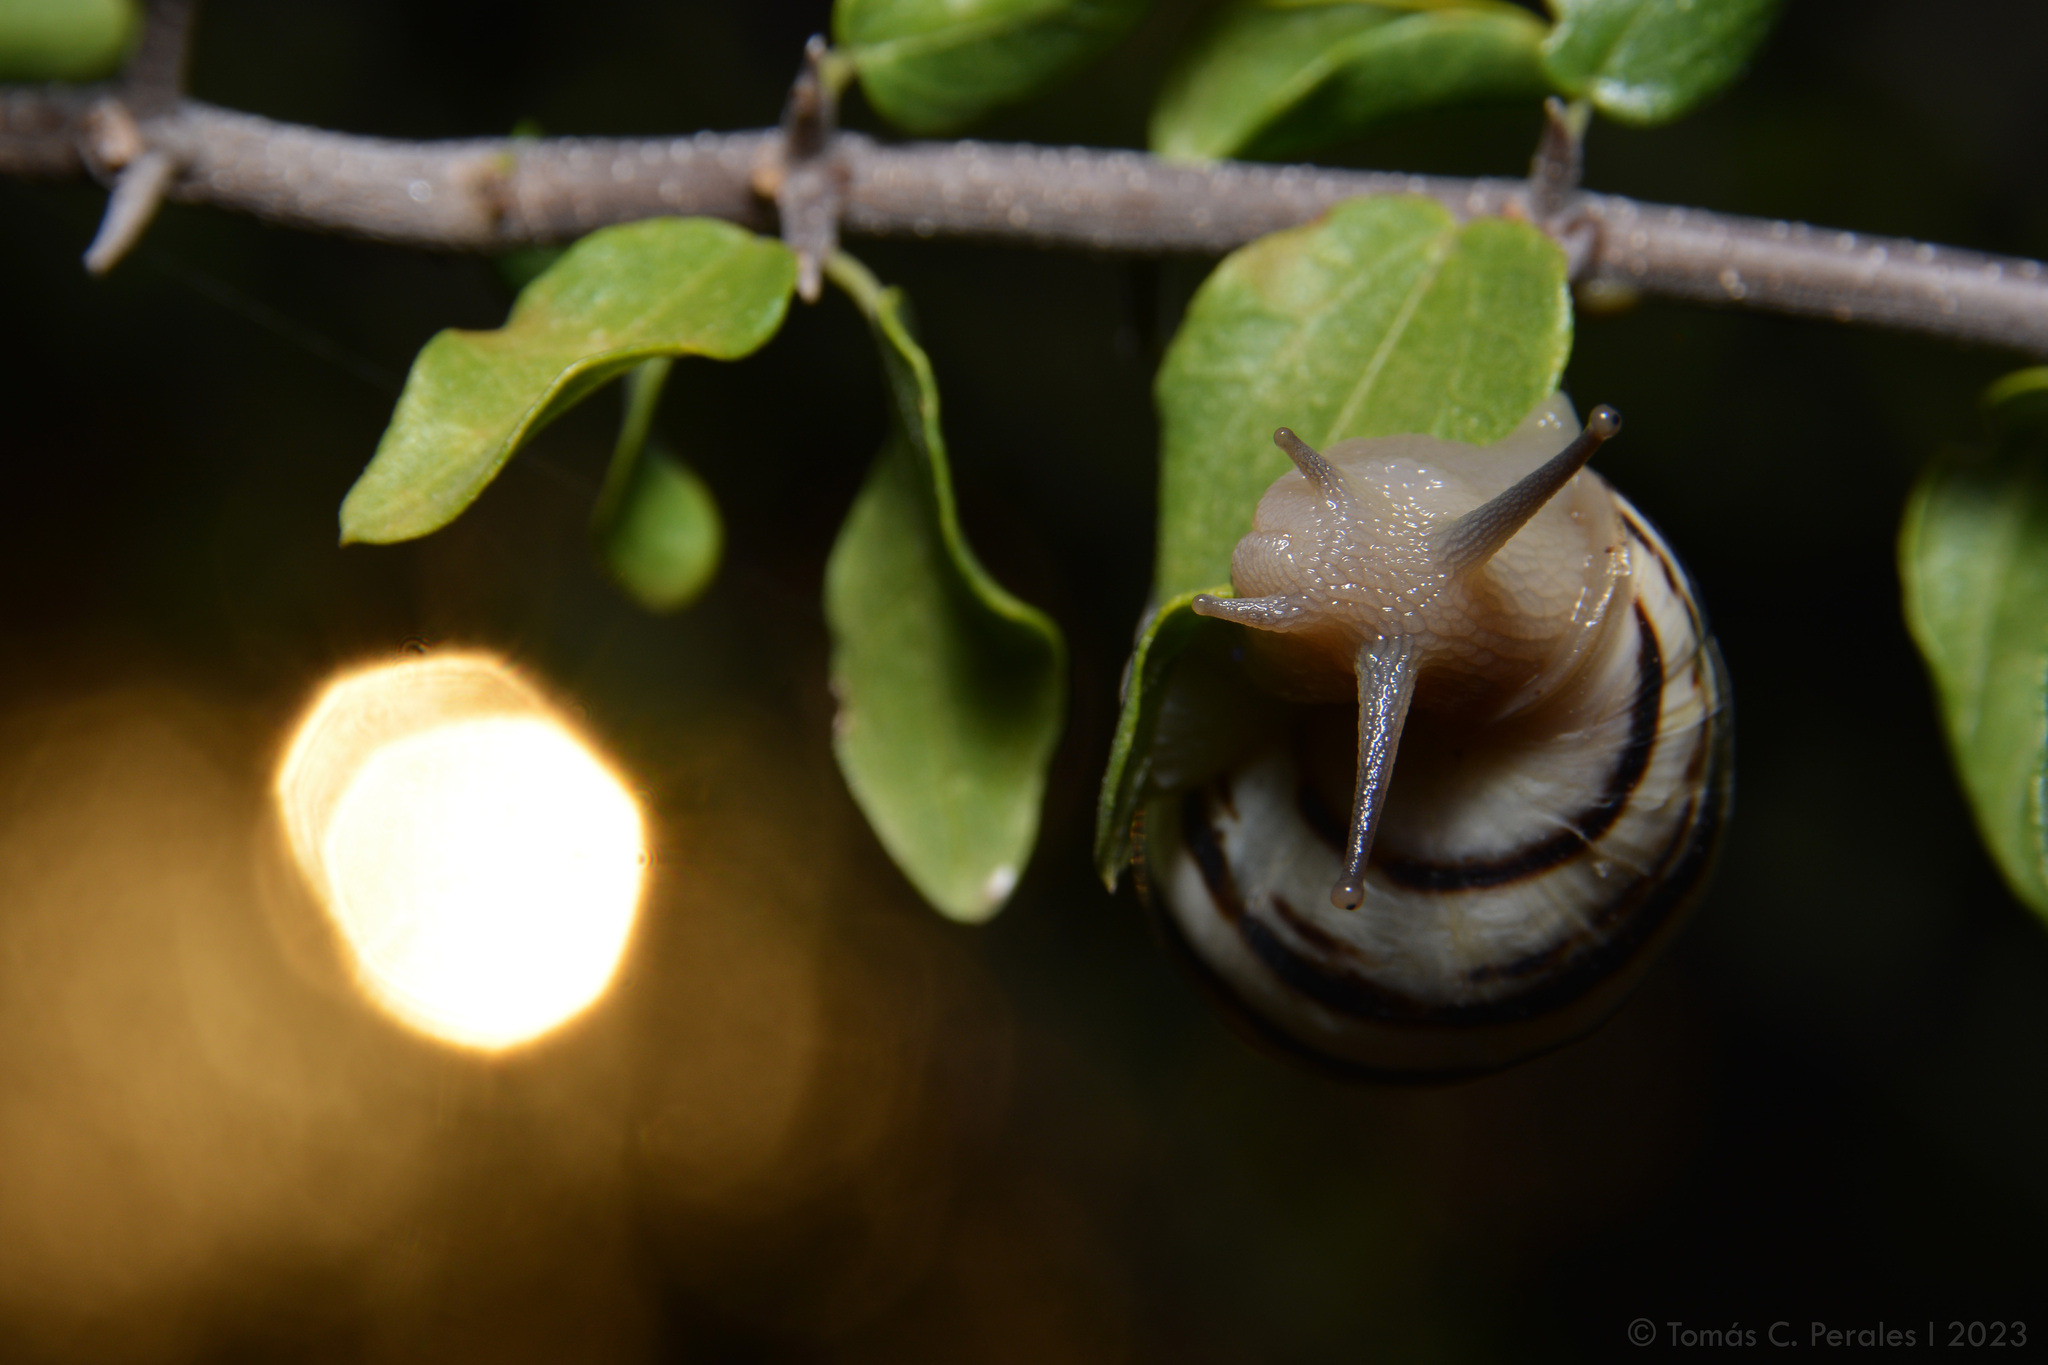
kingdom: Animalia
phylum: Mollusca
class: Gastropoda
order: Stylommatophora
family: Bulimulidae
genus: Drymaeus
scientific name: Drymaeus poecilus
